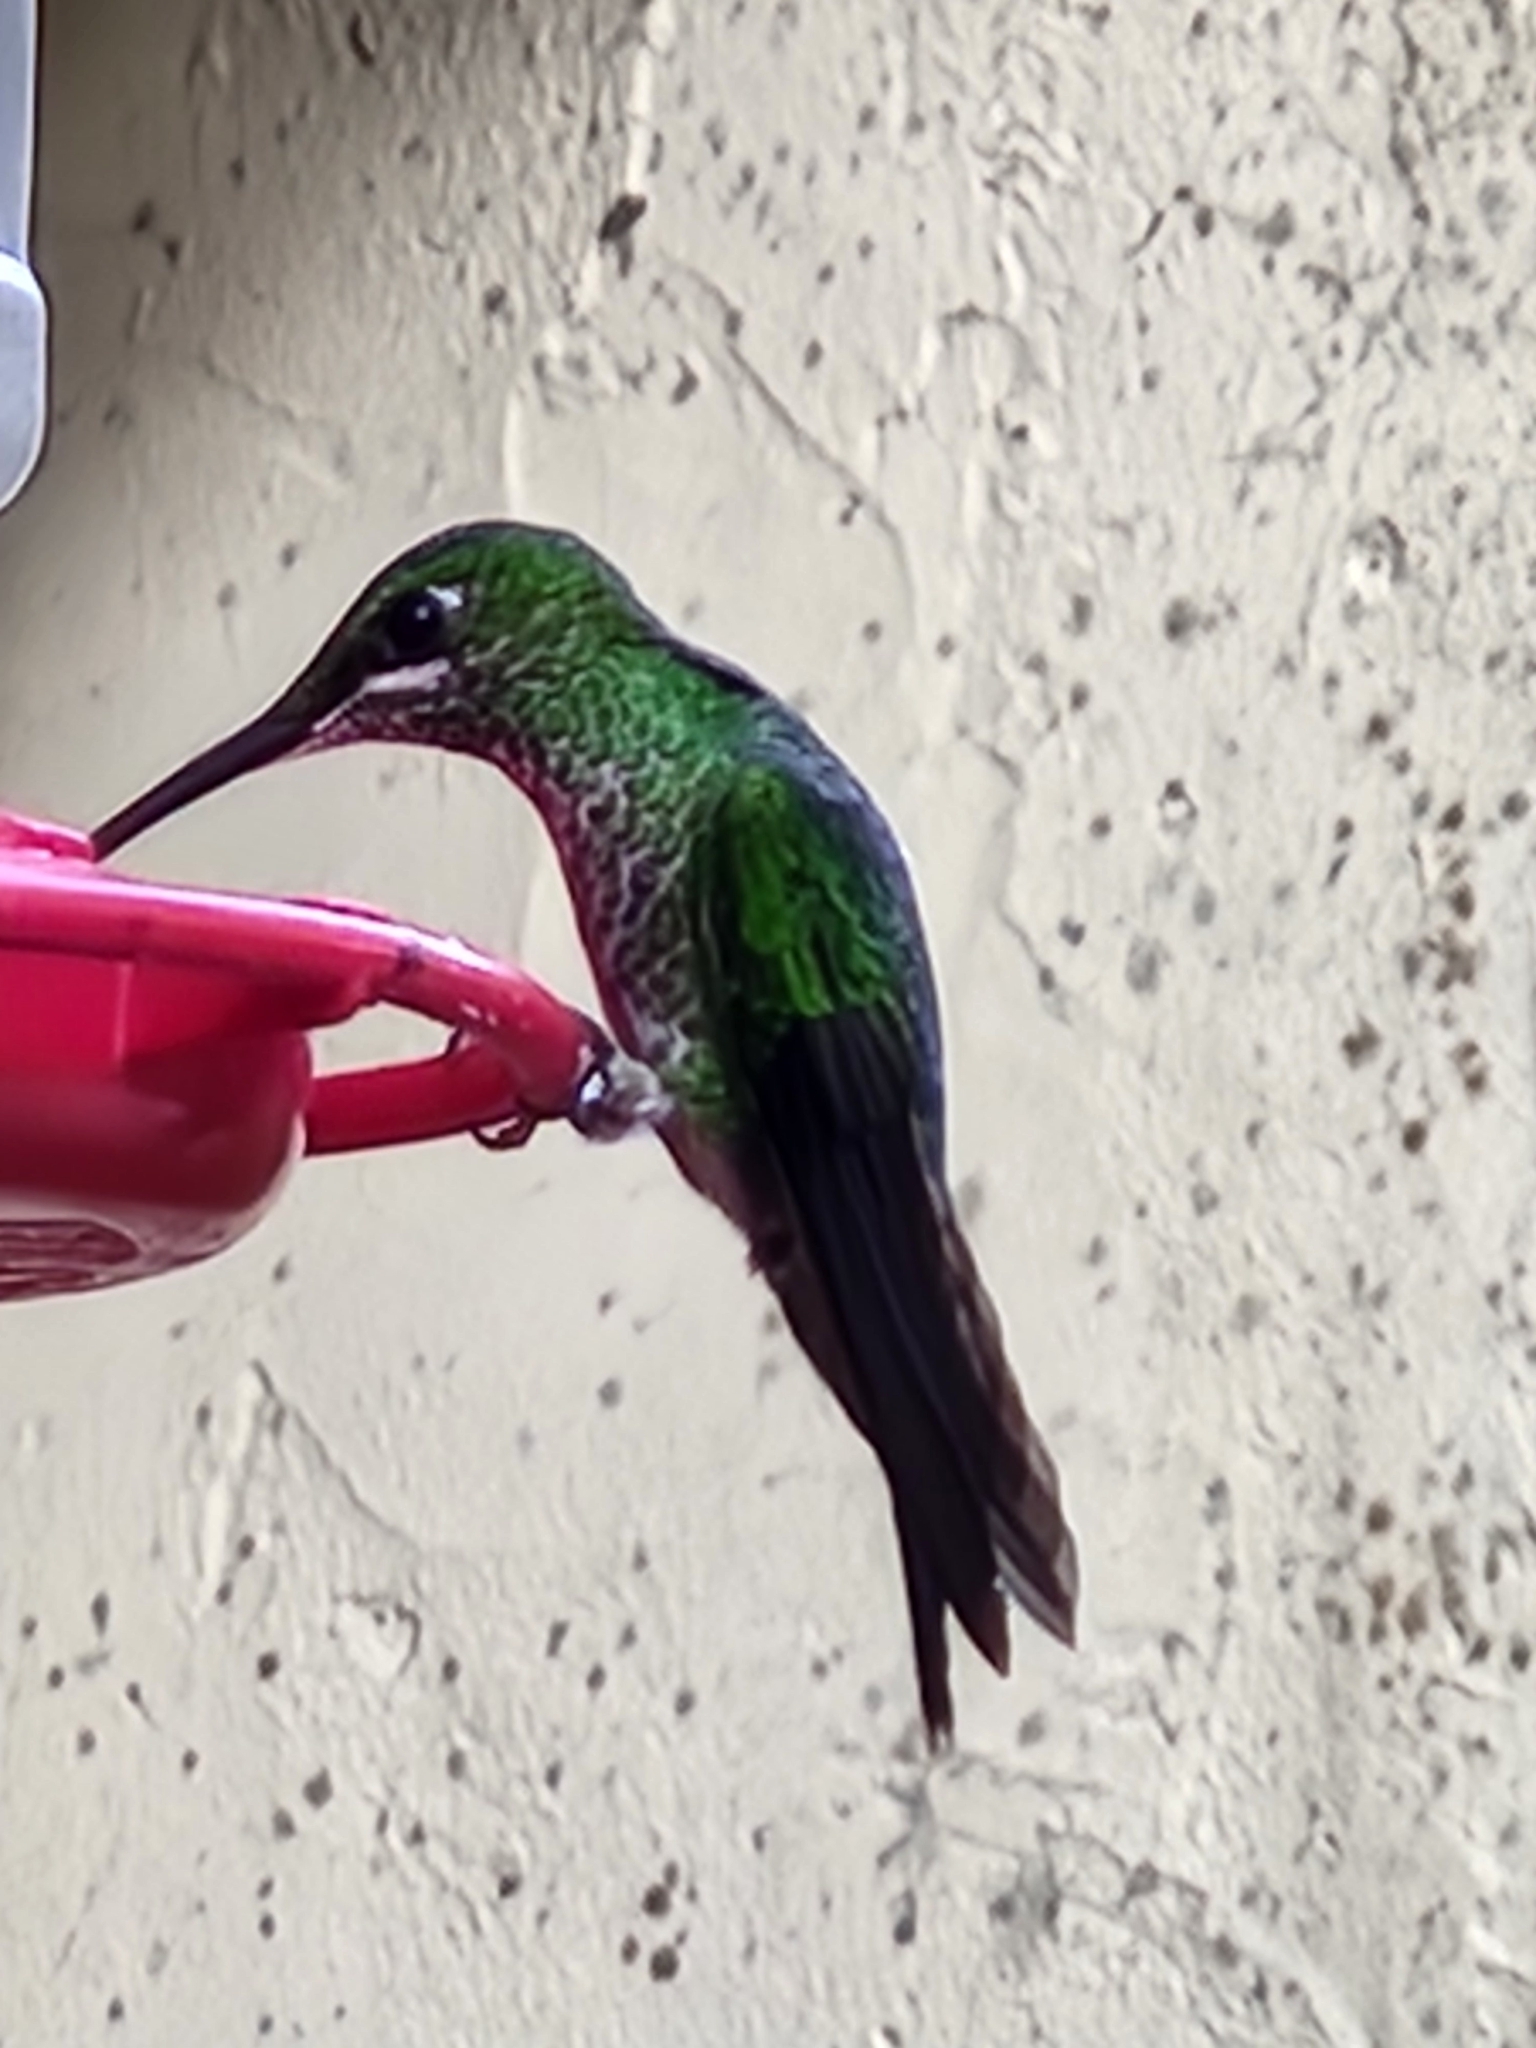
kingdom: Animalia
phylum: Chordata
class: Aves
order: Apodiformes
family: Trochilidae
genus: Heliodoxa
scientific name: Heliodoxa jacula
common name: Green-crowned brilliant
